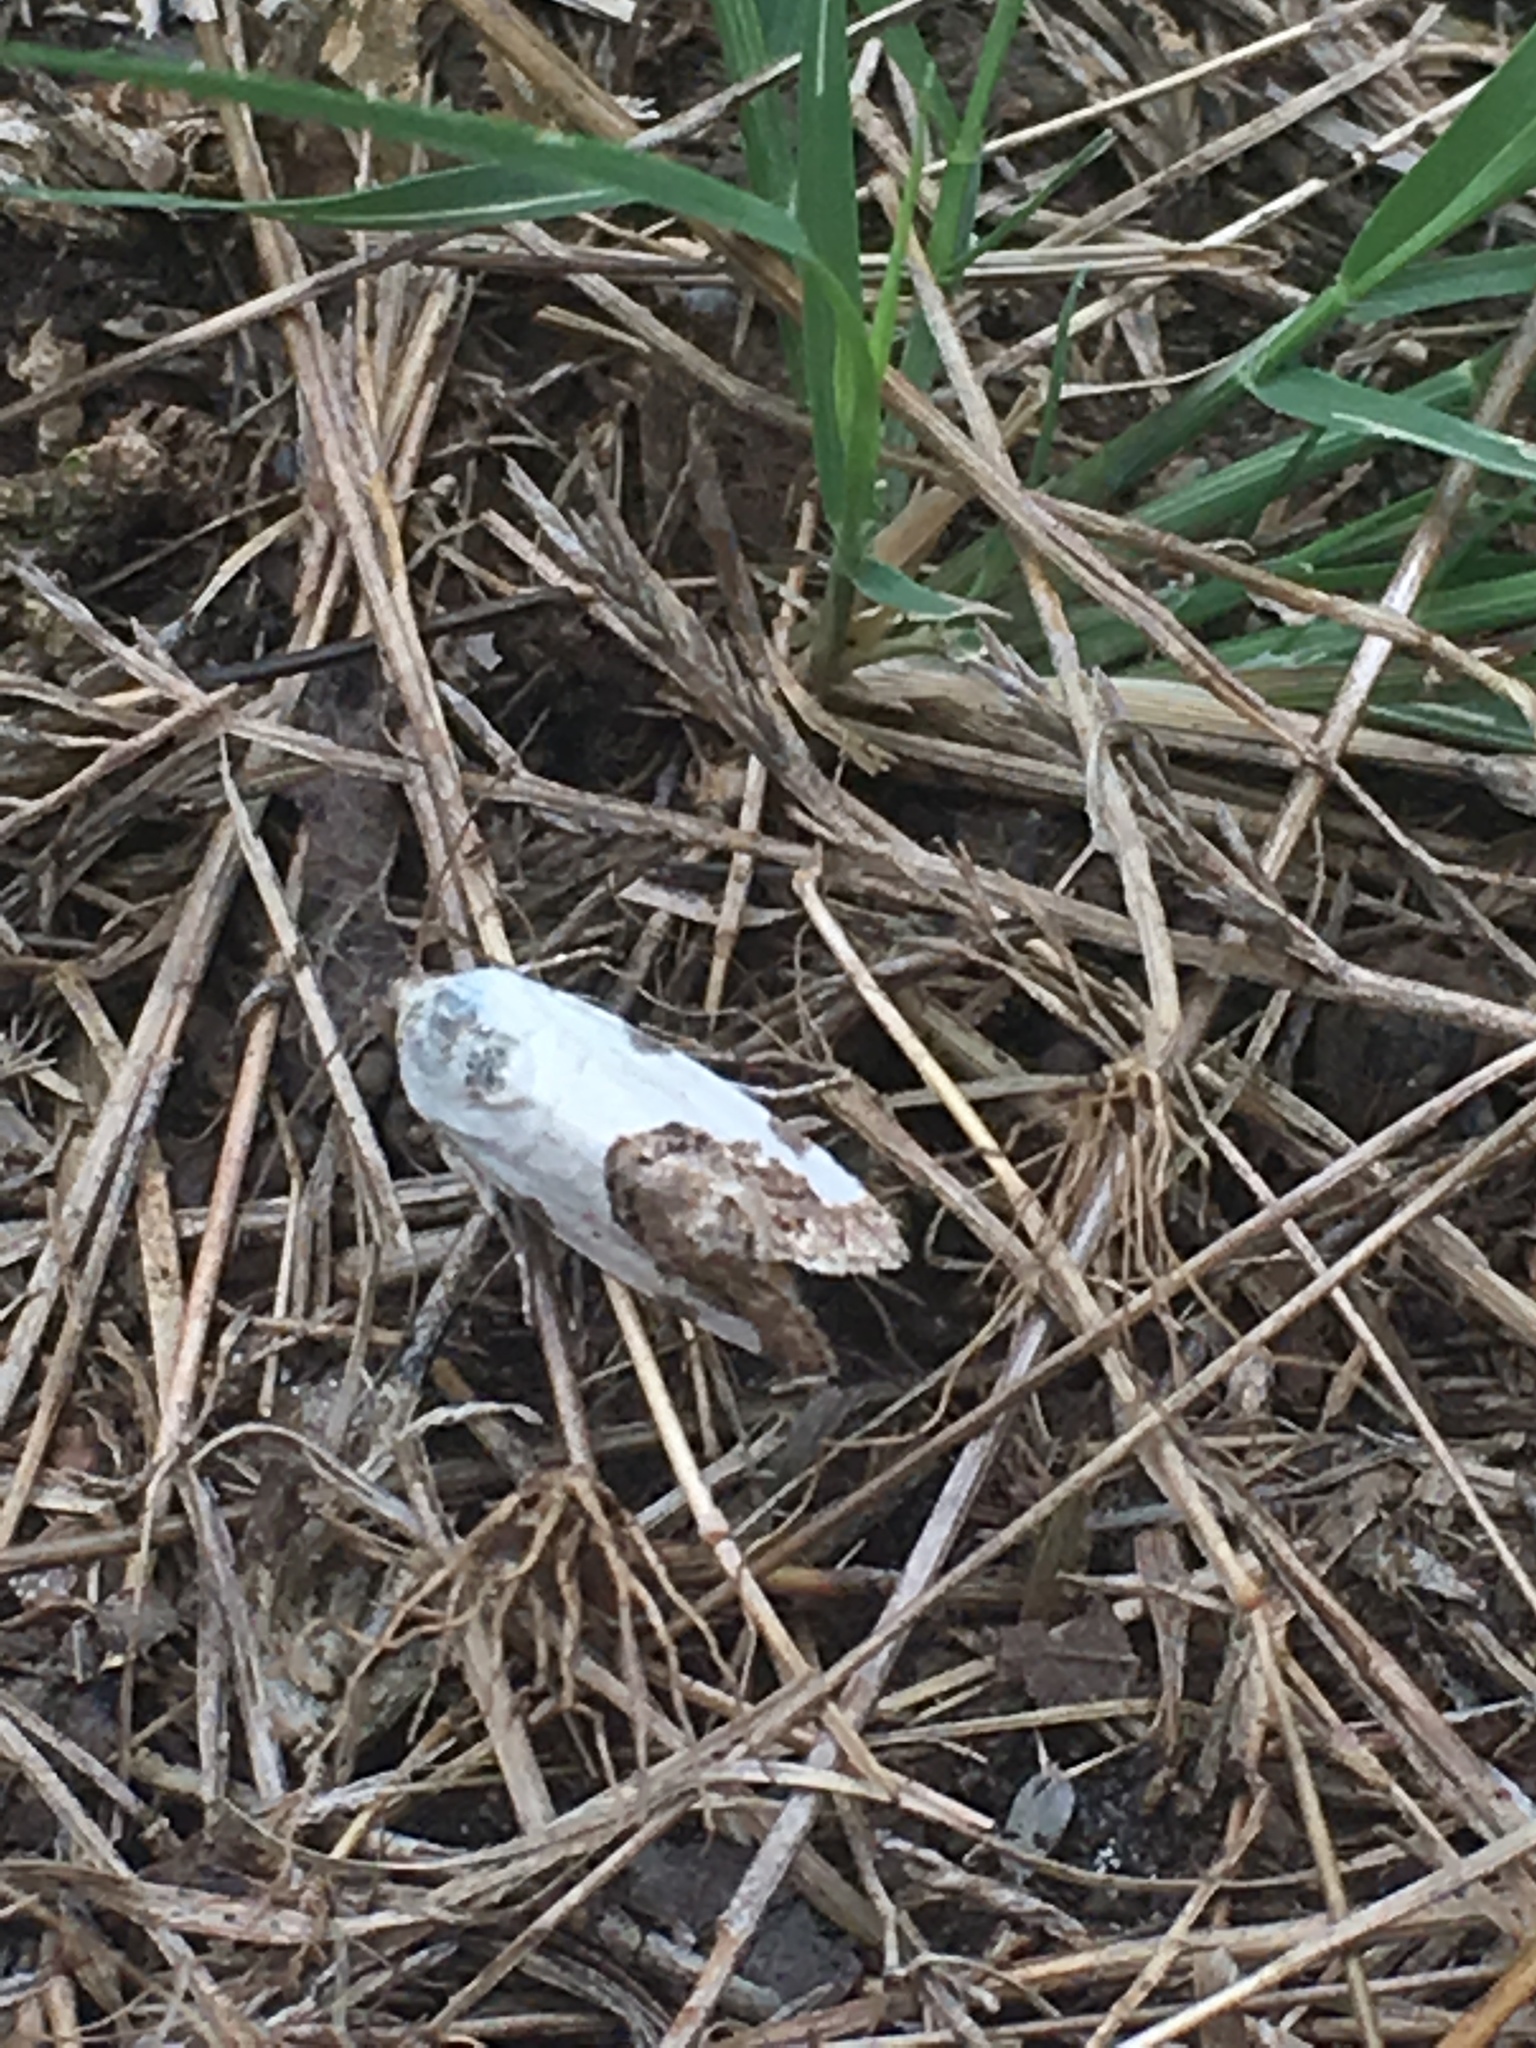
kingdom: Animalia
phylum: Arthropoda
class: Insecta
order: Lepidoptera
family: Noctuidae
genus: Acontia
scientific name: Acontia candefacta
